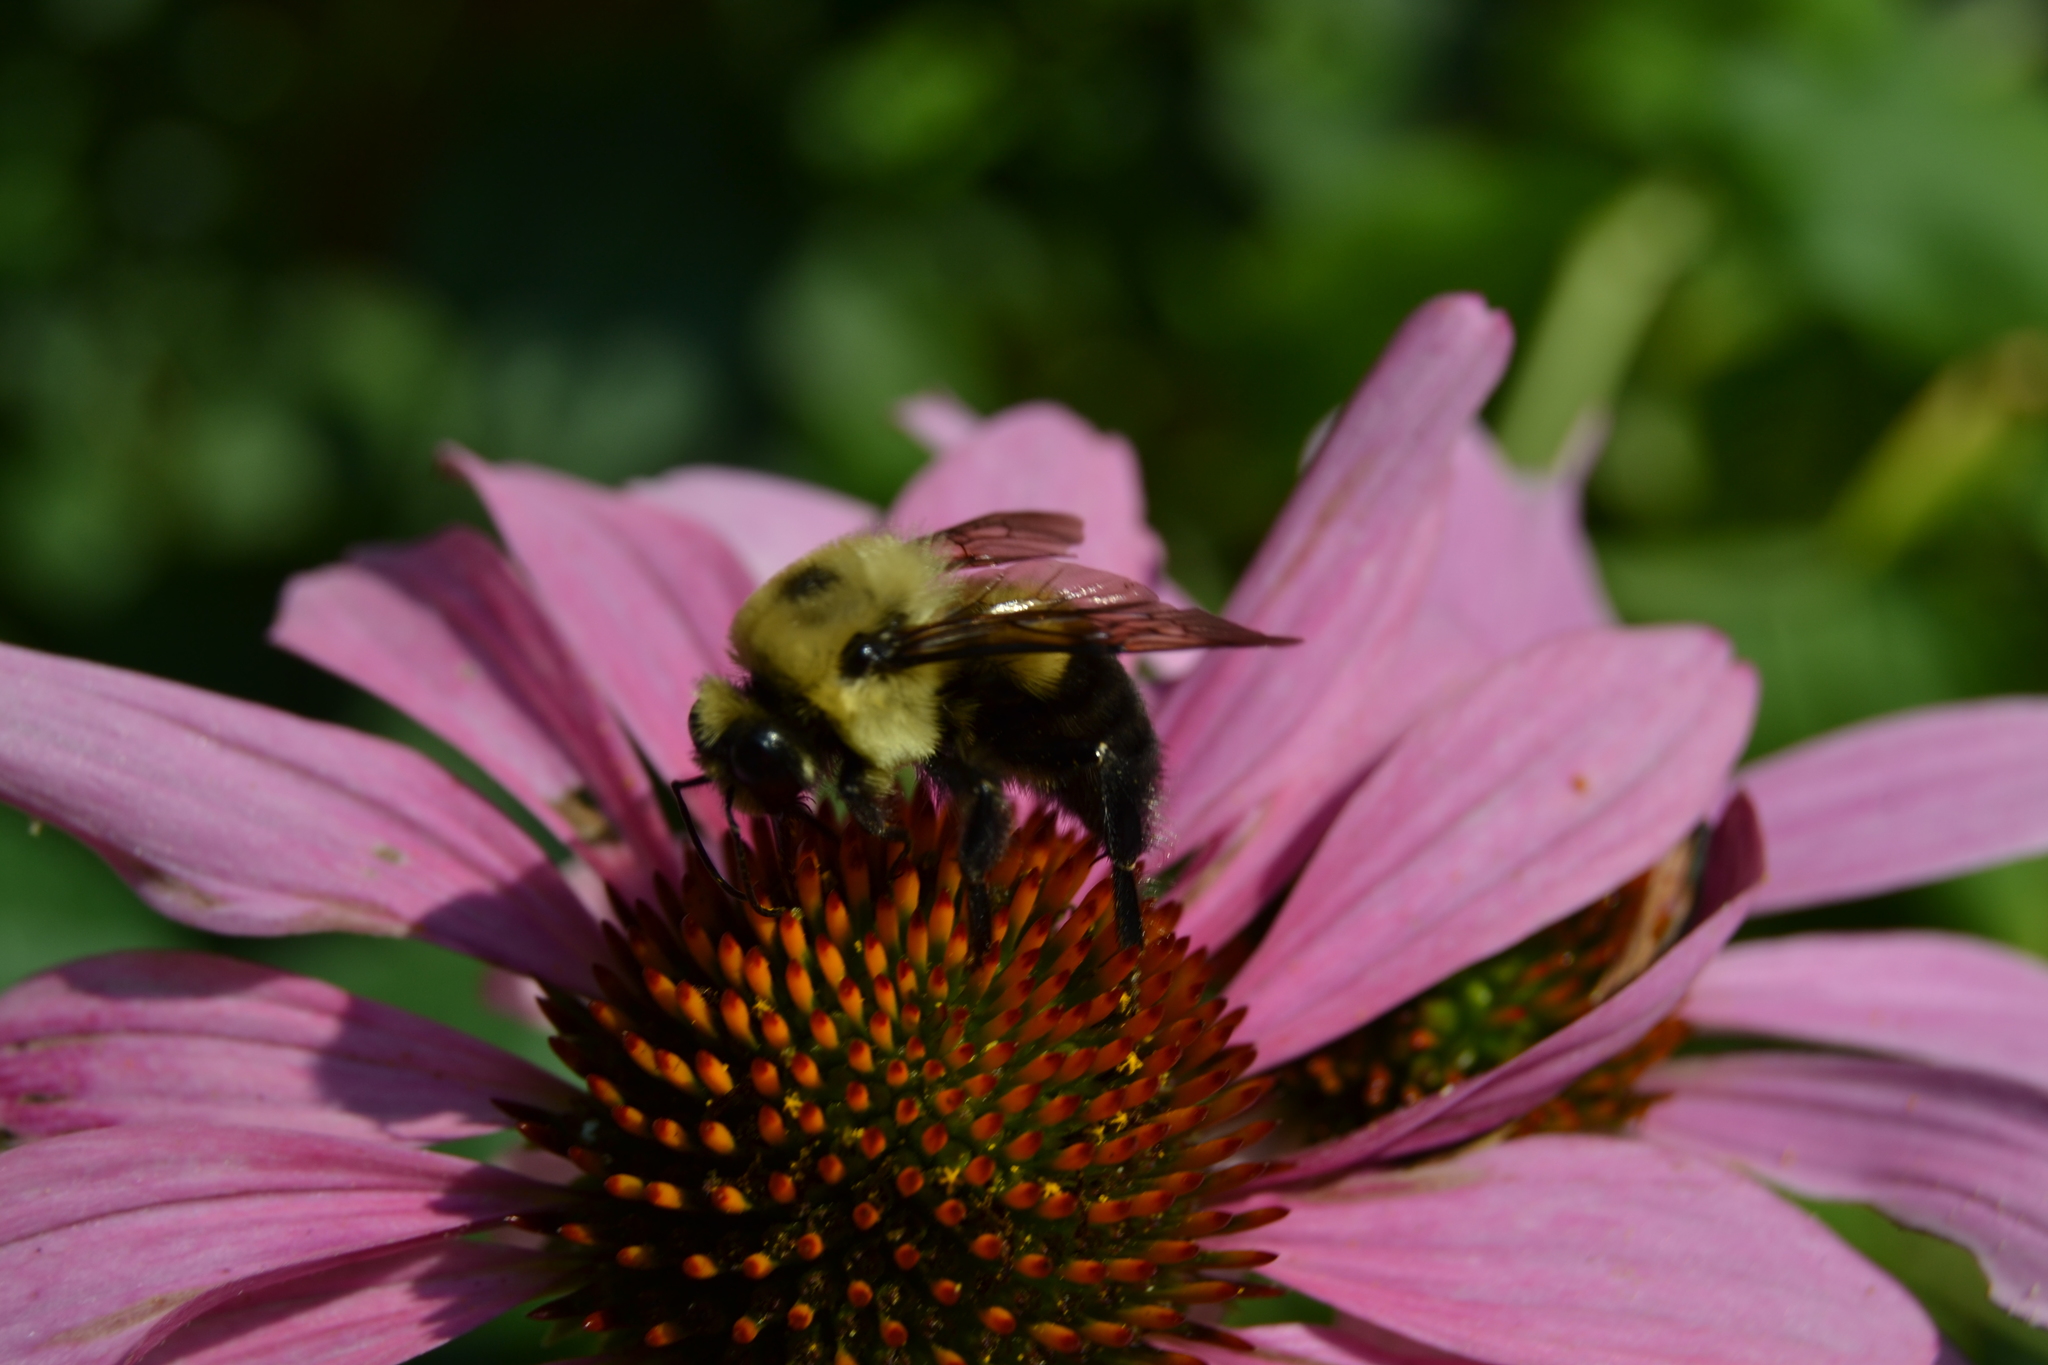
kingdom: Animalia
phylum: Arthropoda
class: Insecta
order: Hymenoptera
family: Apidae
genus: Bombus
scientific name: Bombus griseocollis
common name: Brown-belted bumble bee
